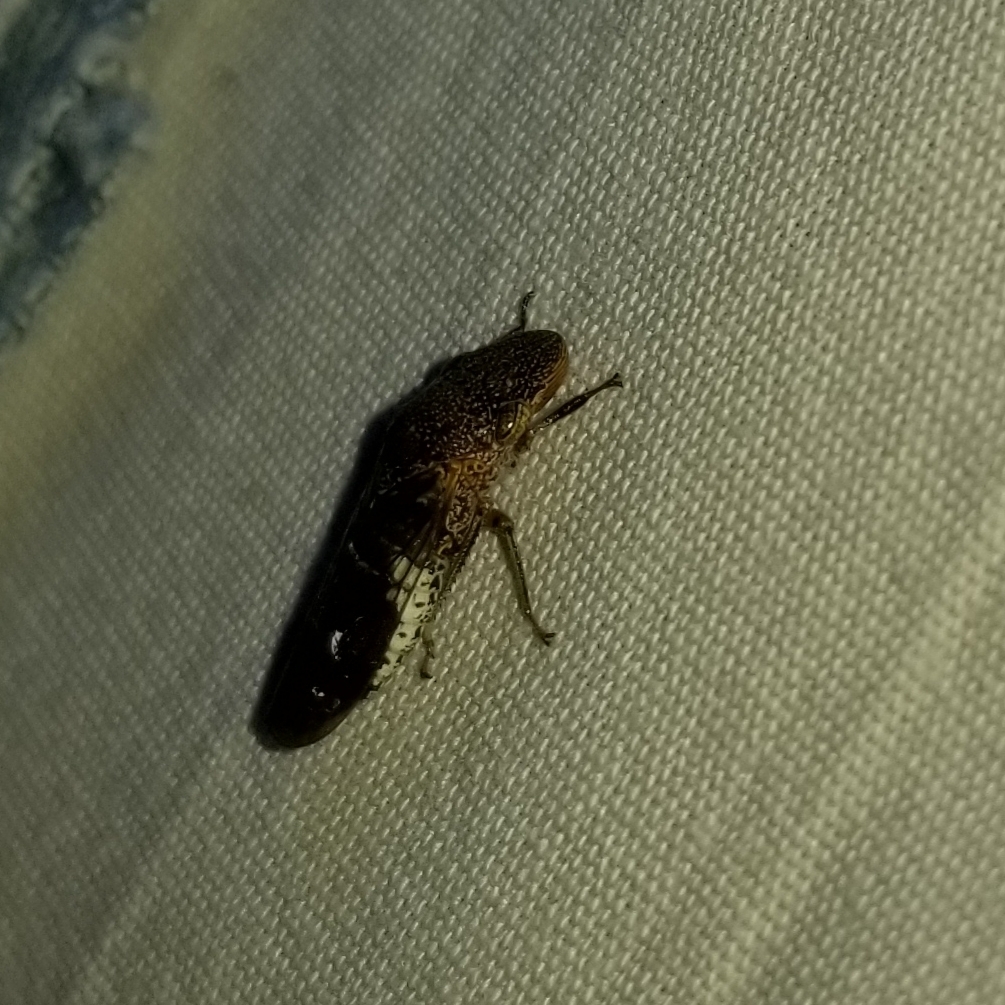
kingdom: Animalia
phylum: Arthropoda
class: Insecta
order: Hemiptera
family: Cicadellidae
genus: Homalodisca
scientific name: Homalodisca vitripennis
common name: Glassy-winged sharpshooter
